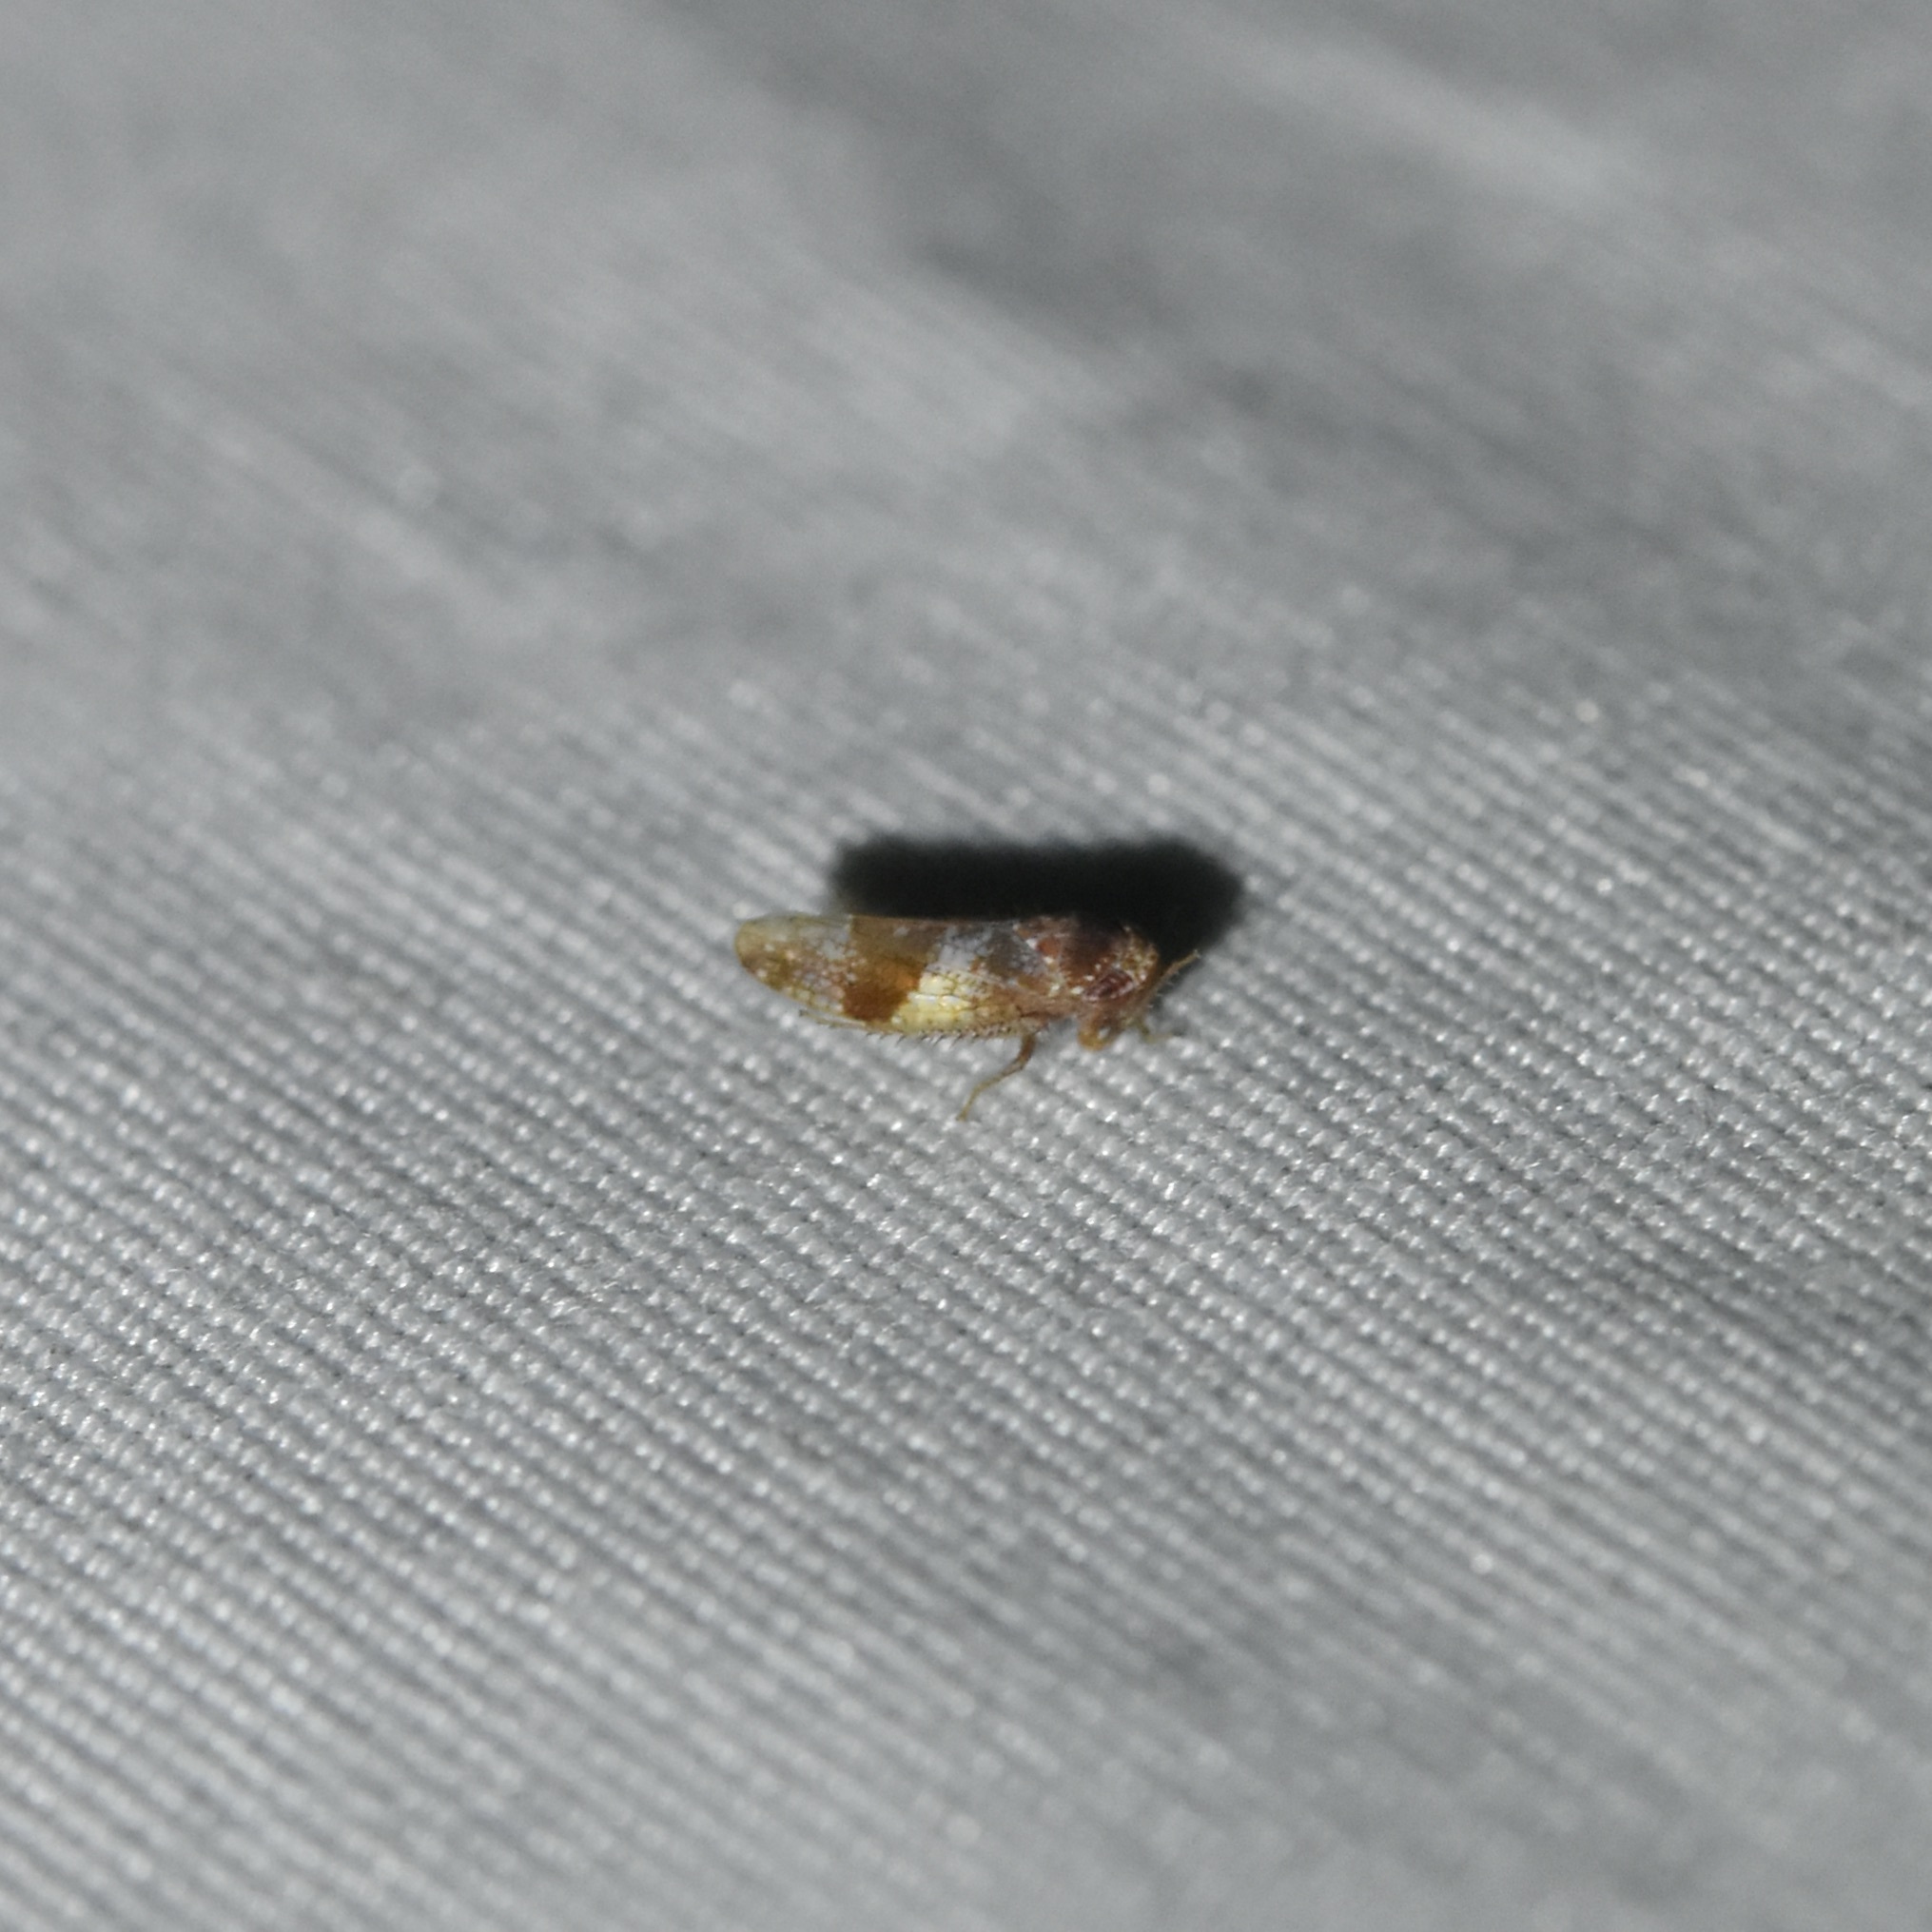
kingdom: Animalia
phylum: Arthropoda
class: Insecta
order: Hemiptera
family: Cicadellidae
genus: Norvellina
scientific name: Norvellina helenae
